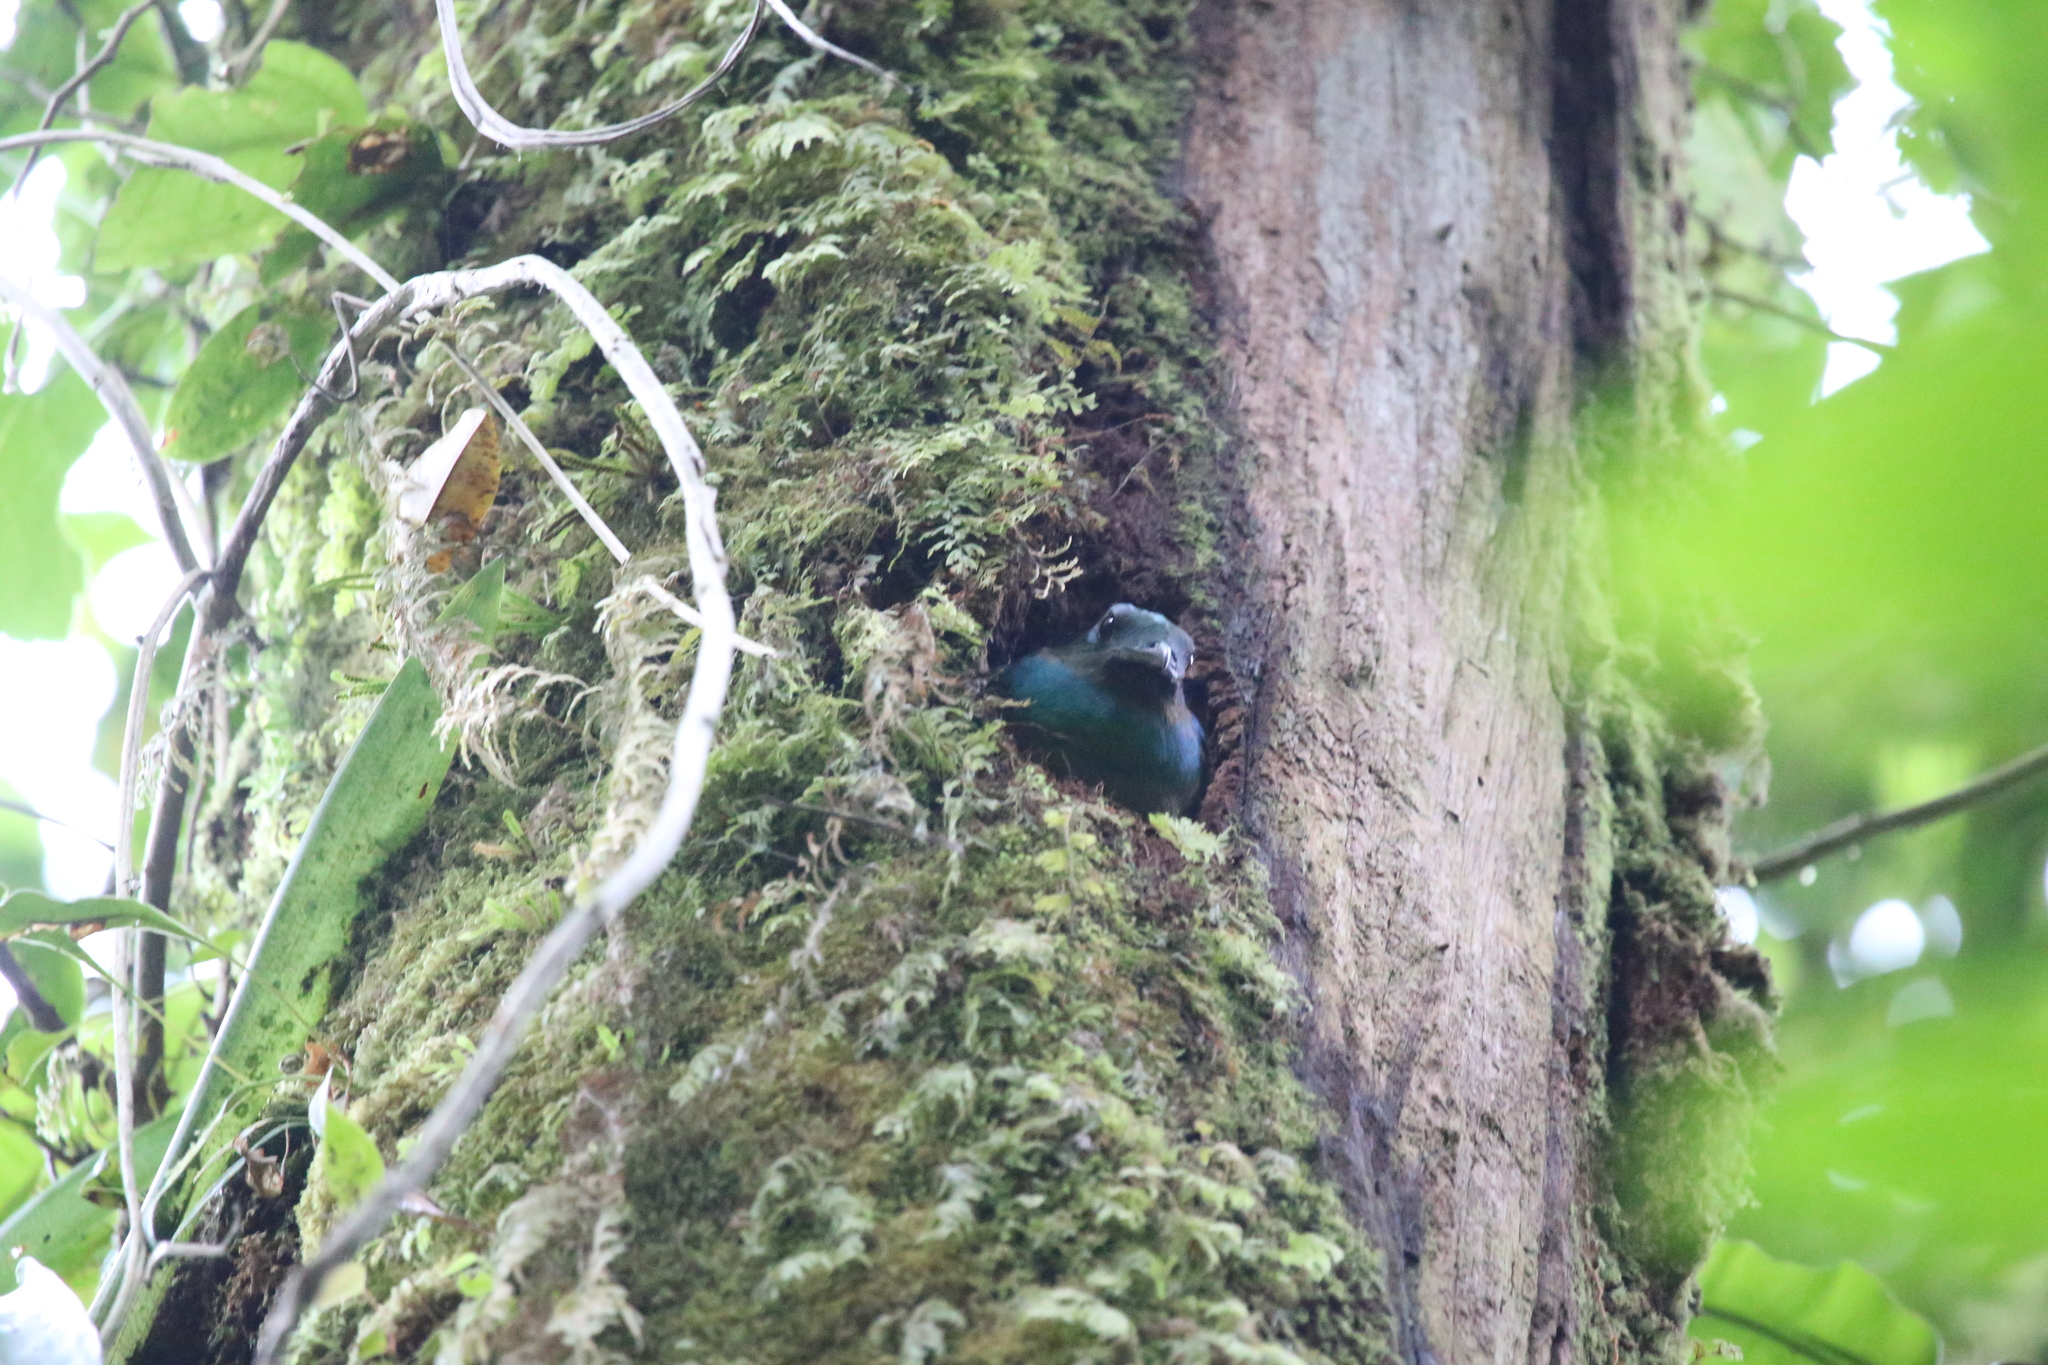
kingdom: Animalia
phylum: Chordata
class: Aves
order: Trogoniformes
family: Trogonidae
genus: Pharomachrus
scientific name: Pharomachrus mocinno
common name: Resplendent quetzal
